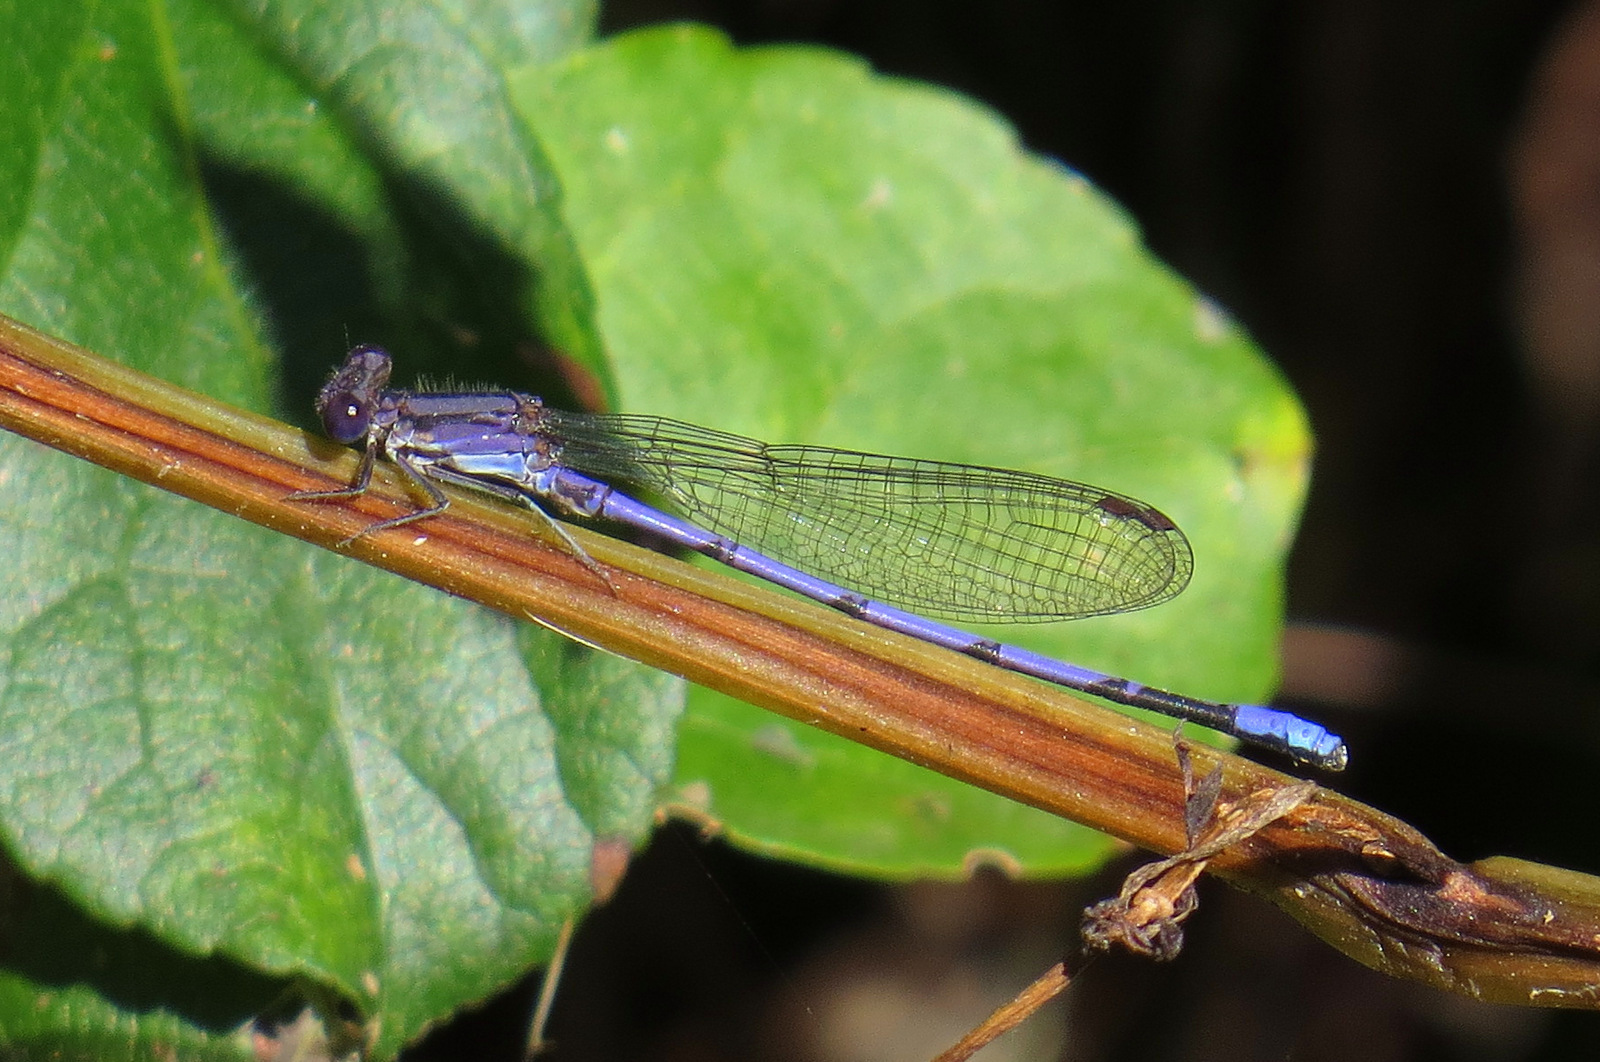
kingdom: Animalia
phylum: Arthropoda
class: Insecta
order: Odonata
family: Coenagrionidae
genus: Argia
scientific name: Argia fumipennis
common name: Variable dancer
